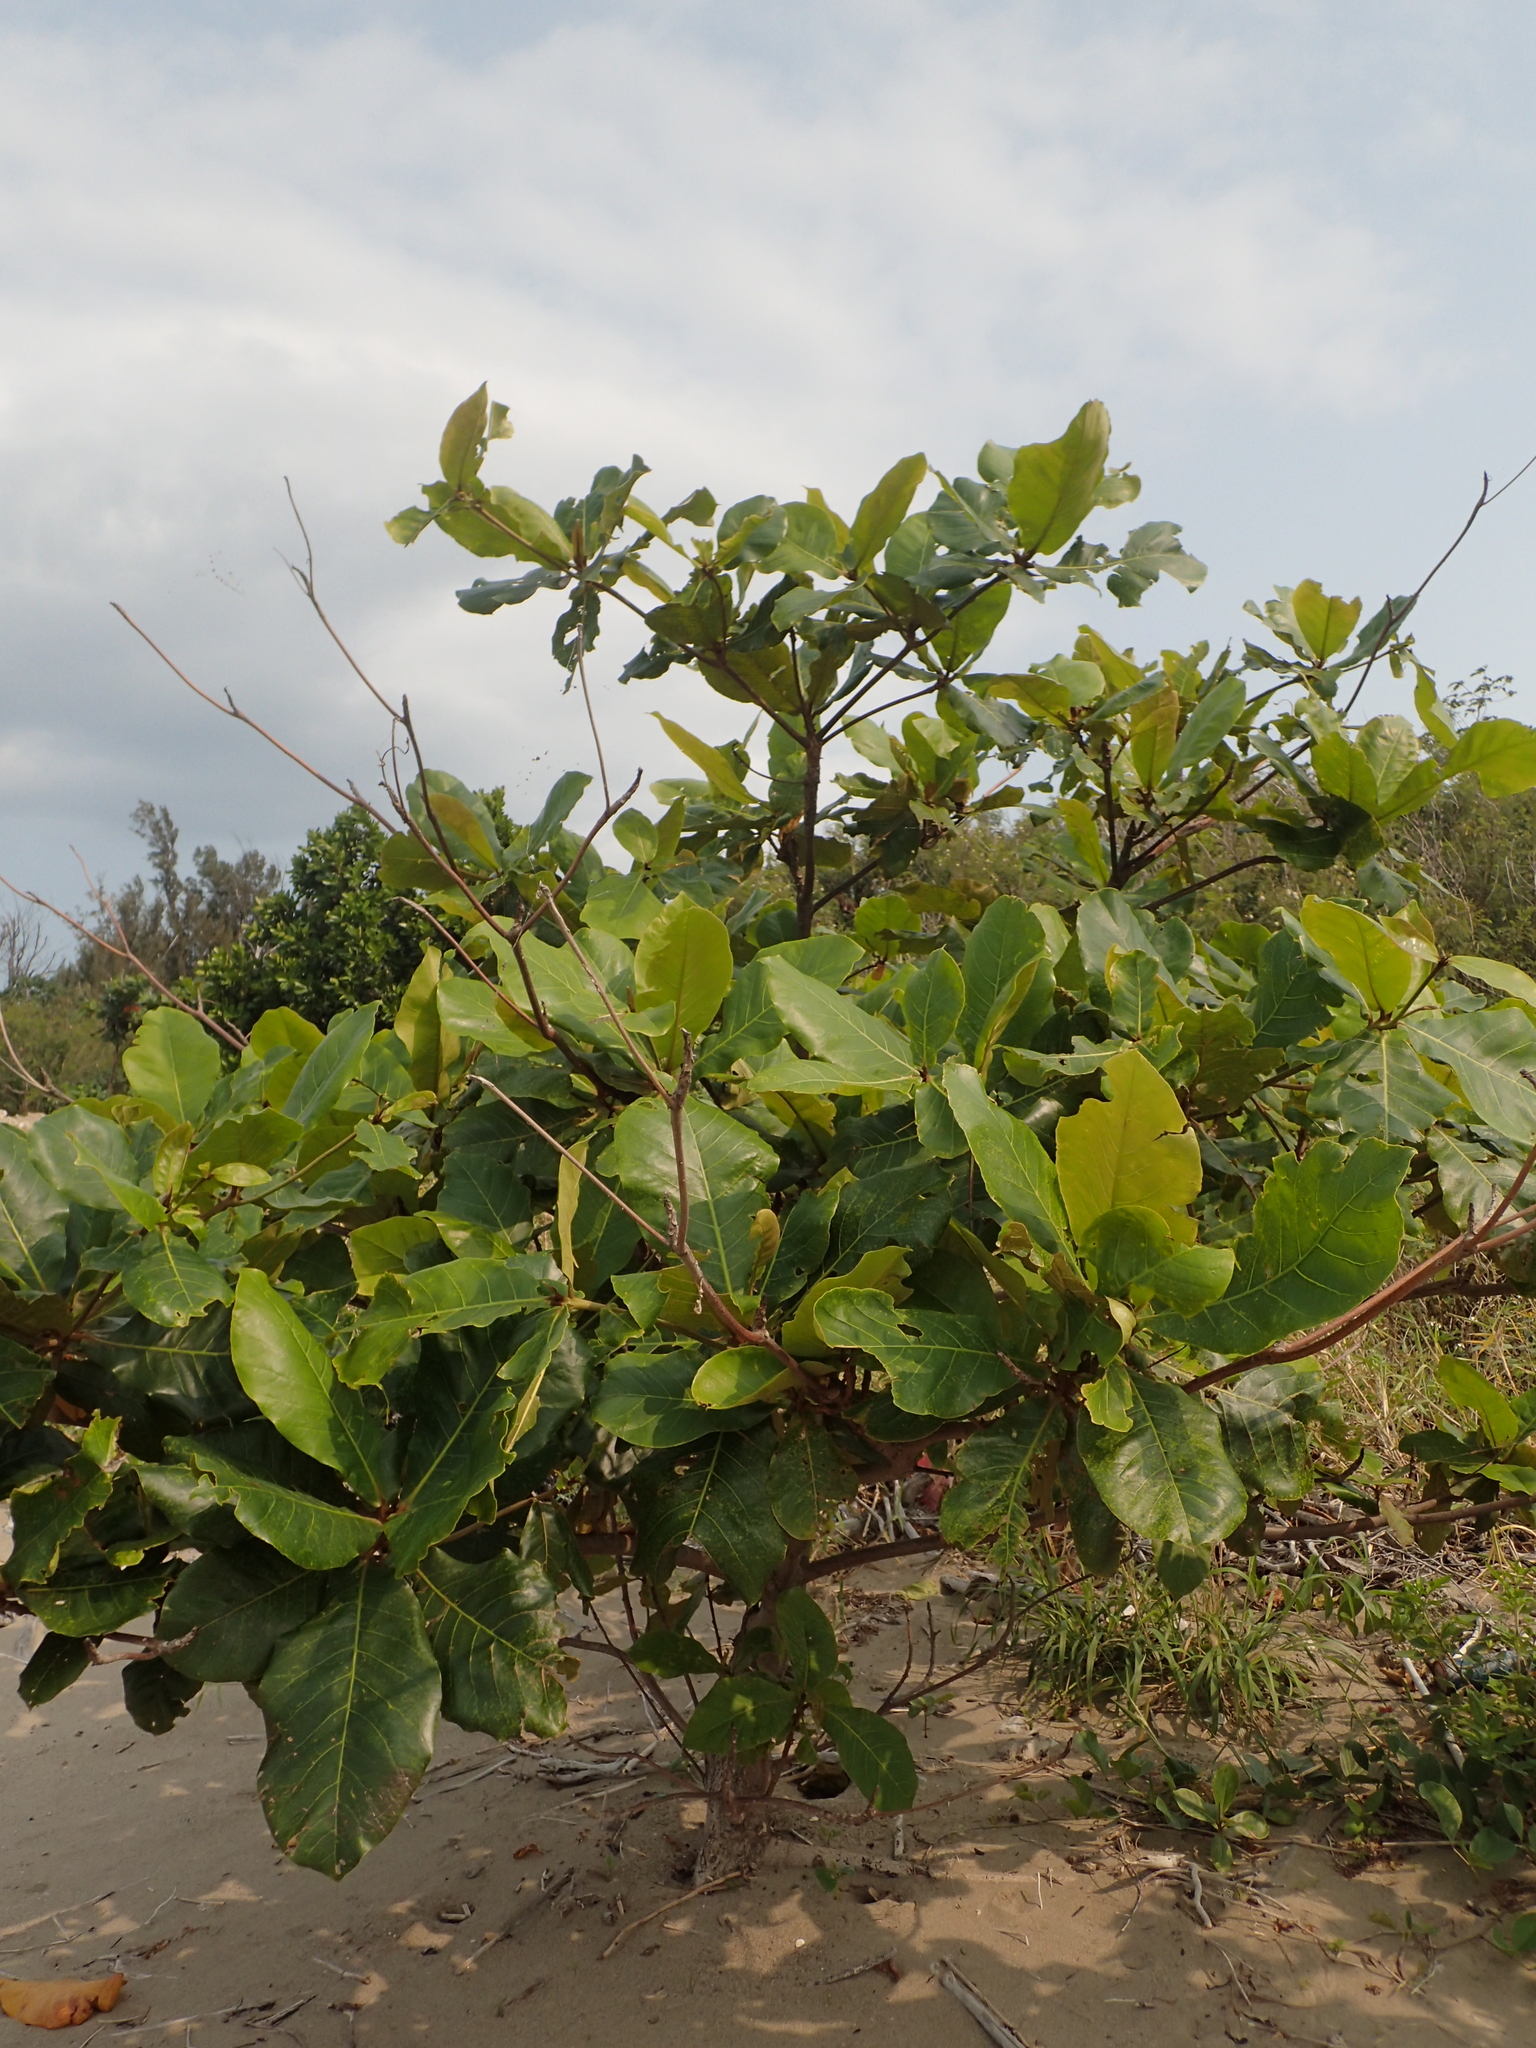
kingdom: Plantae
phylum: Tracheophyta
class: Magnoliopsida
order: Myrtales
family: Combretaceae
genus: Terminalia
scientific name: Terminalia catappa
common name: Tropical almond
